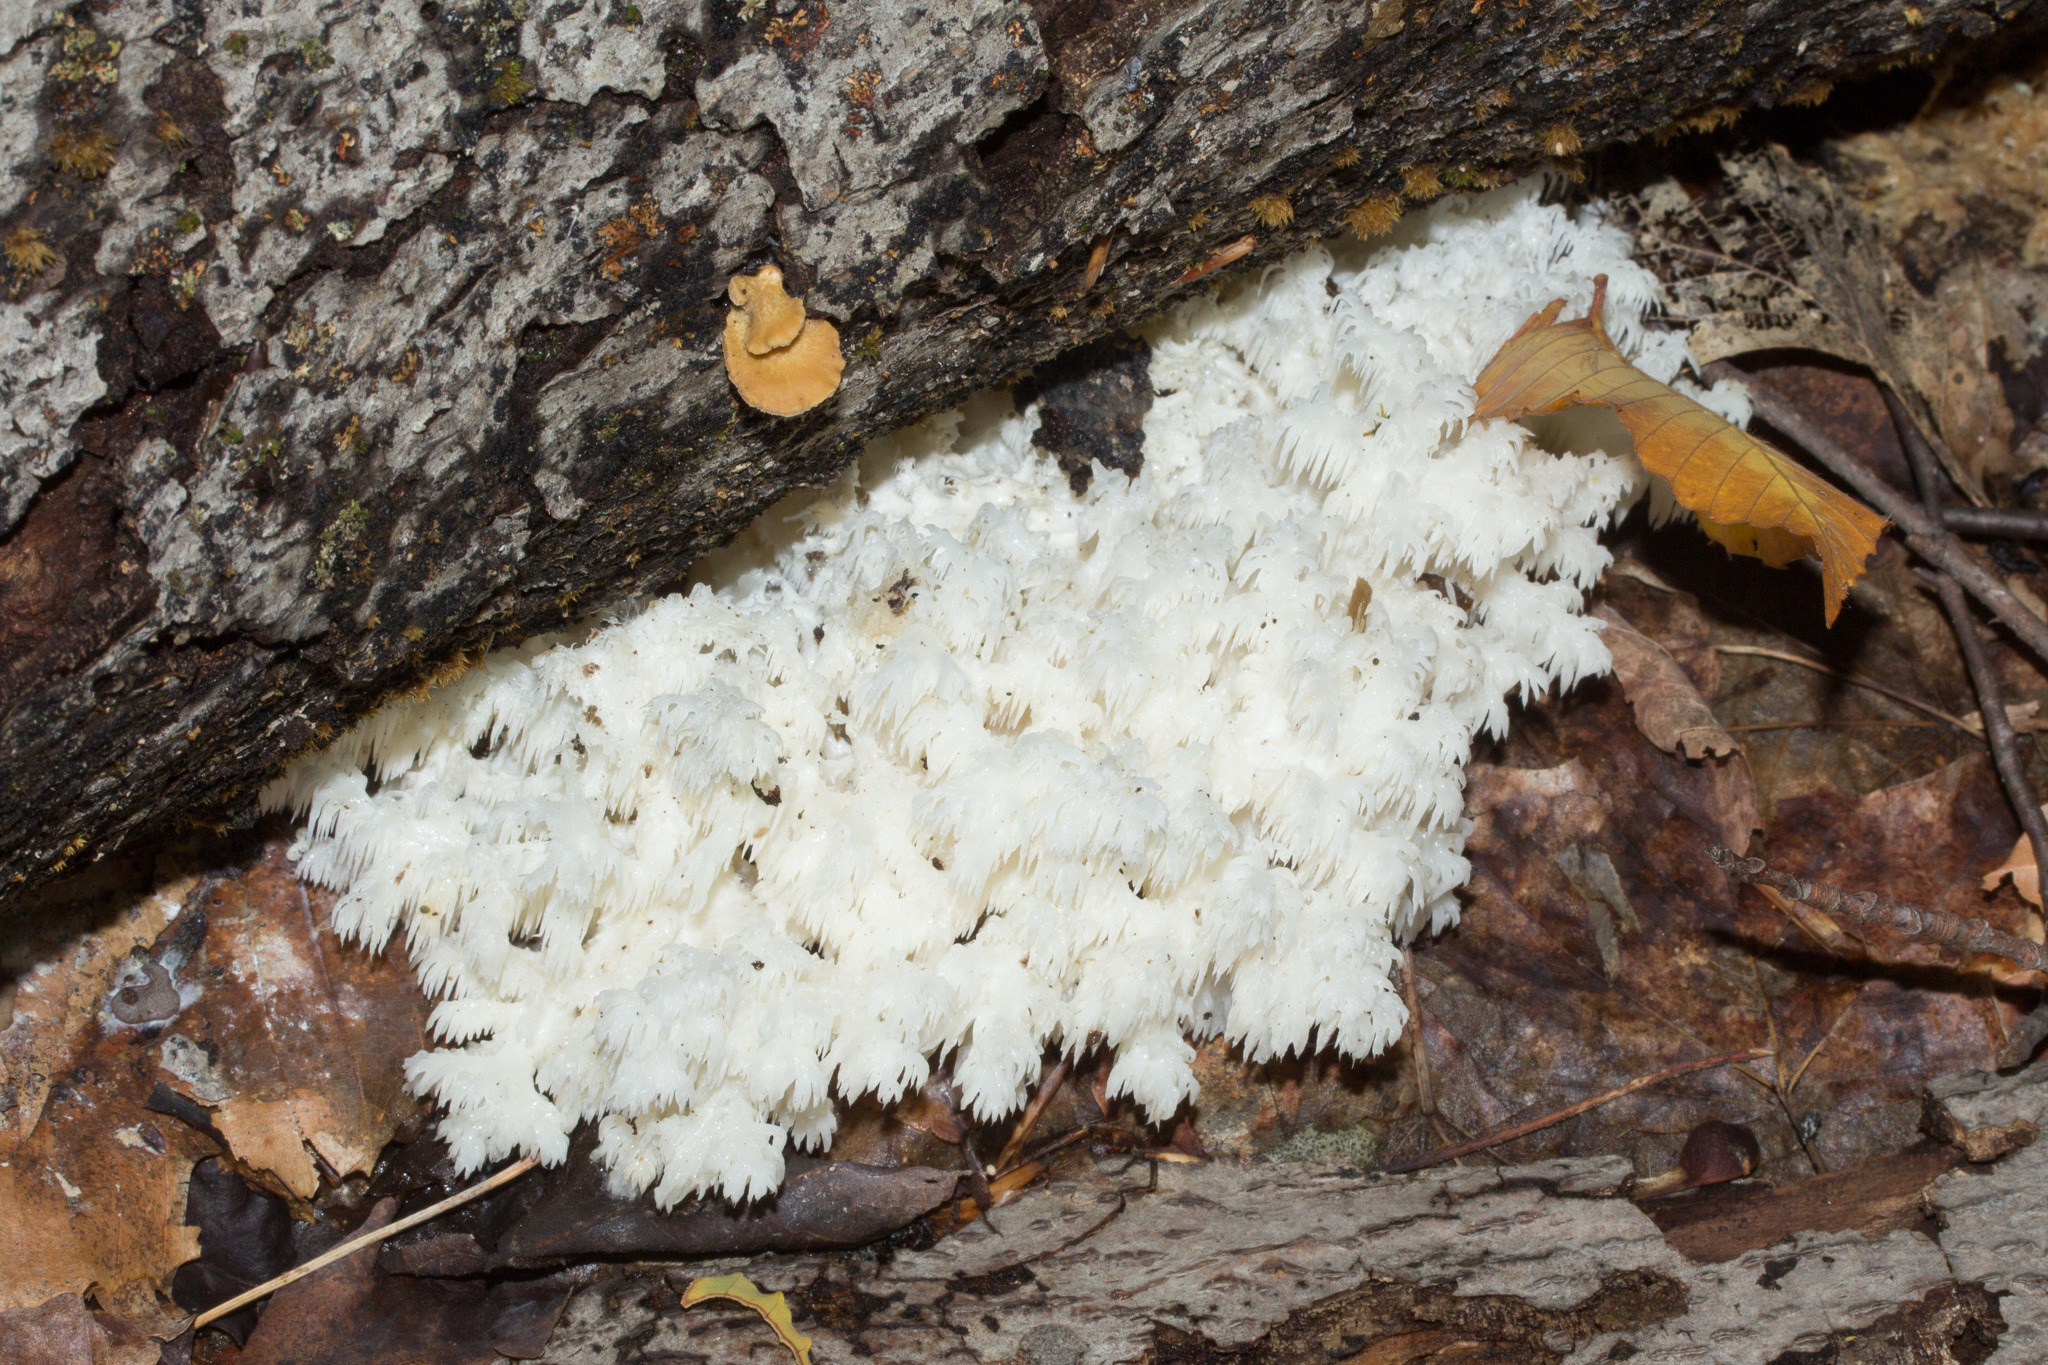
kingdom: Fungi
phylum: Basidiomycota
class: Agaricomycetes
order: Russulales
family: Hericiaceae
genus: Hericium
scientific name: Hericium coralloides
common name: Coral tooth
